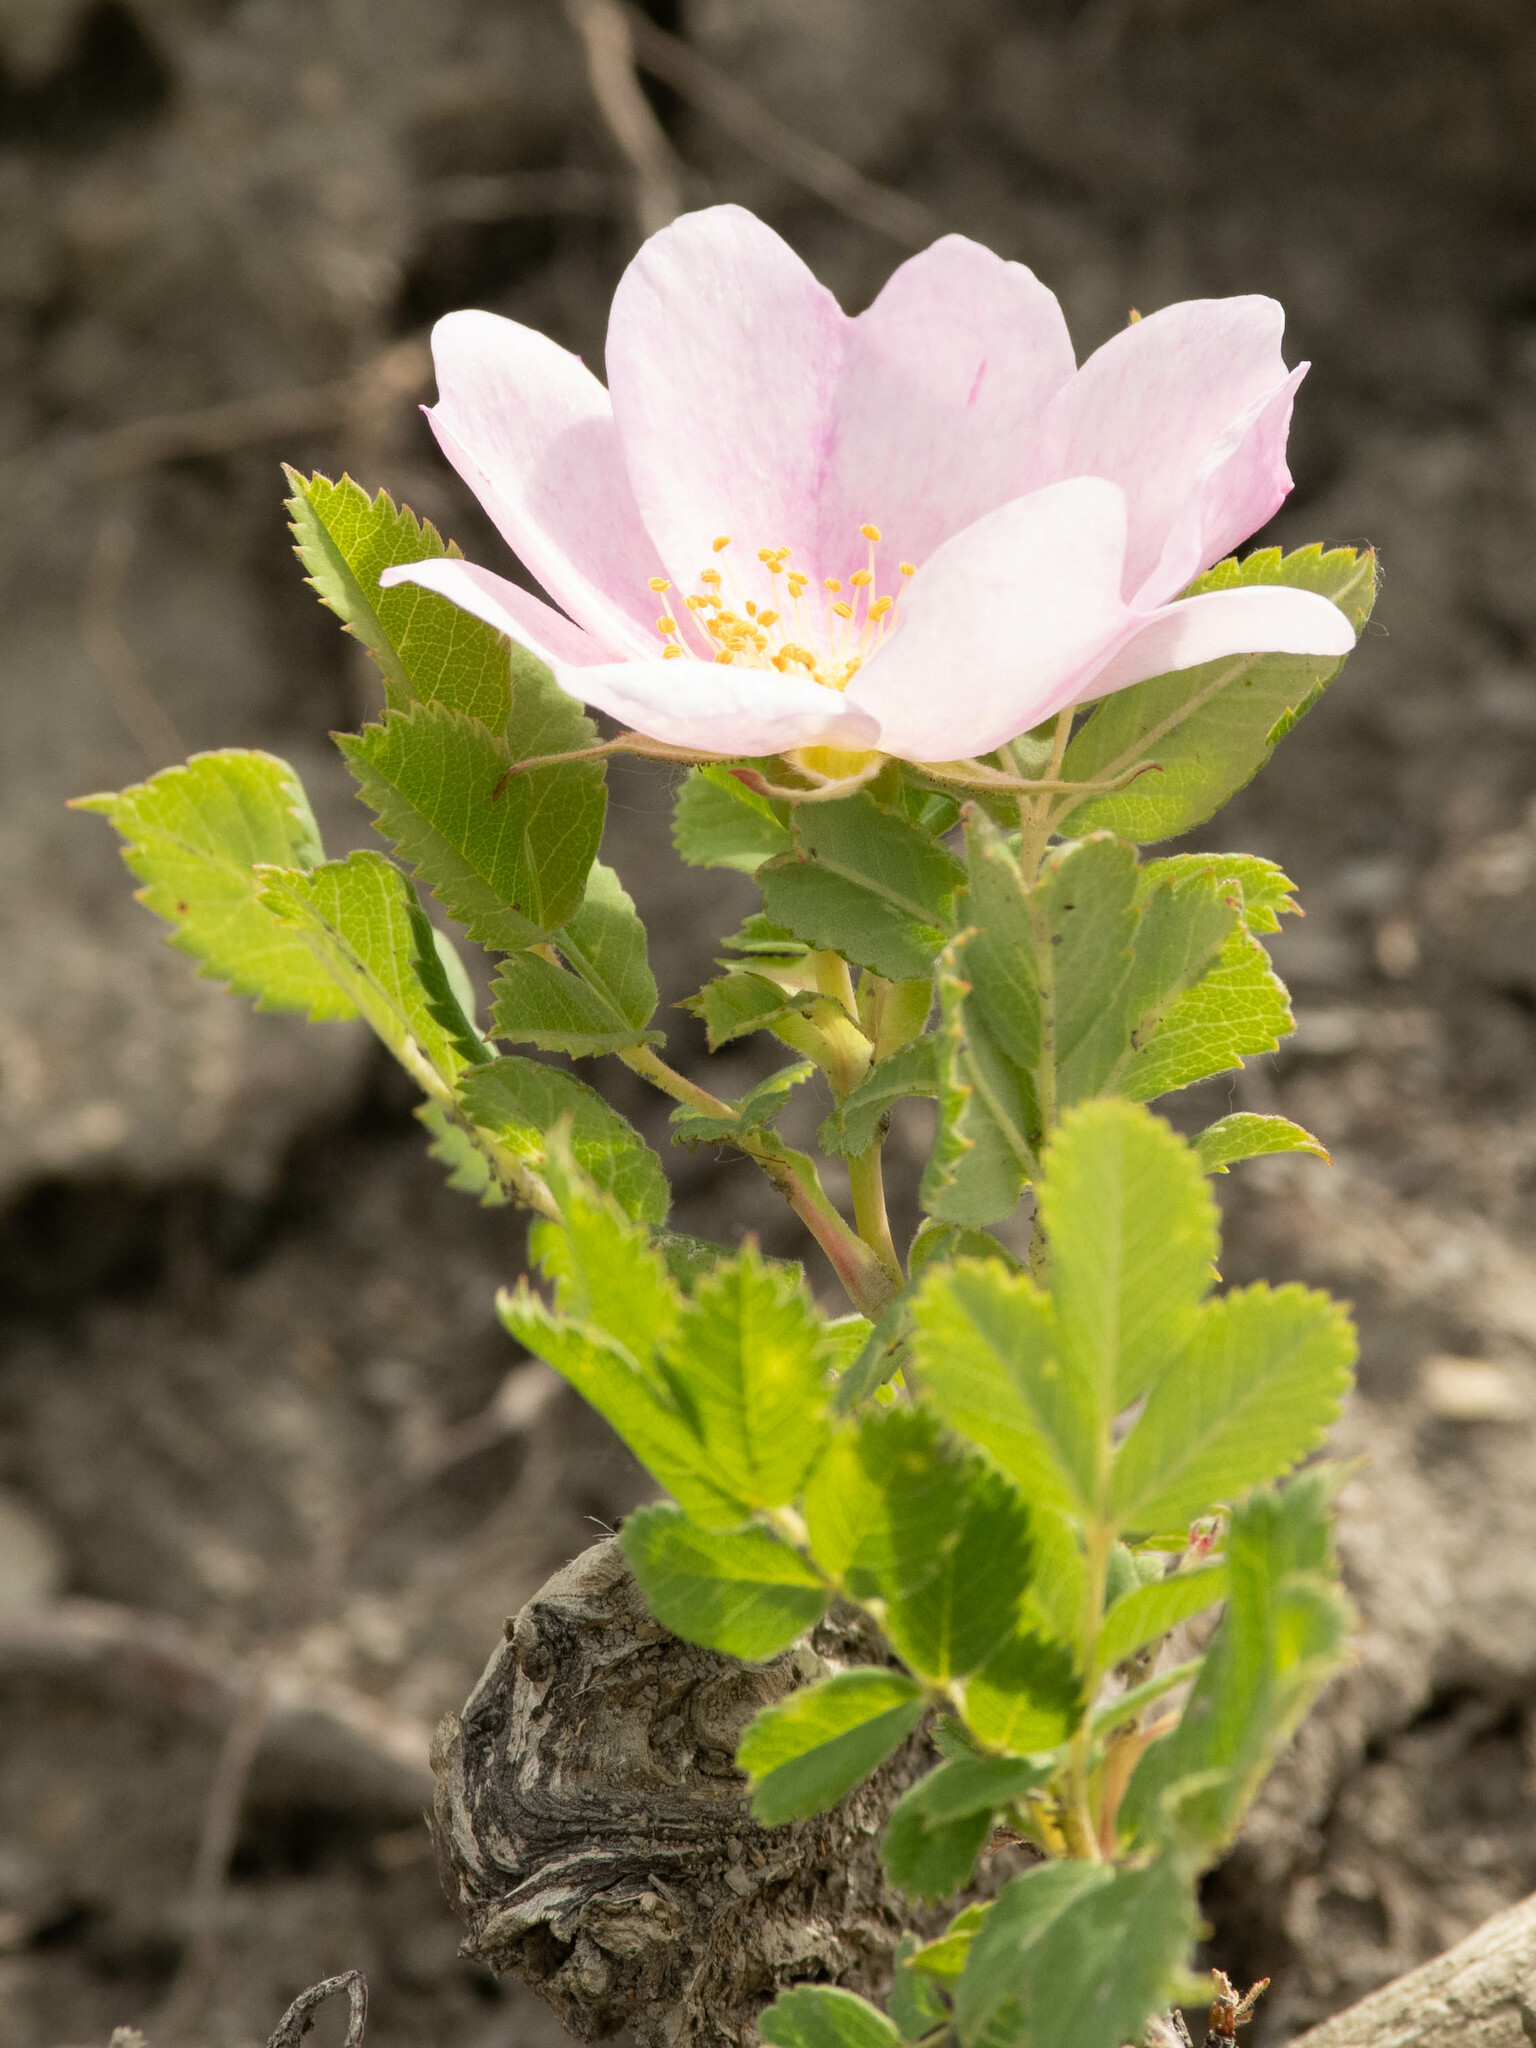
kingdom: Plantae
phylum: Tracheophyta
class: Magnoliopsida
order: Rosales
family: Rosaceae
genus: Rosa
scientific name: Rosa arkansana
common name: Prairie rose
